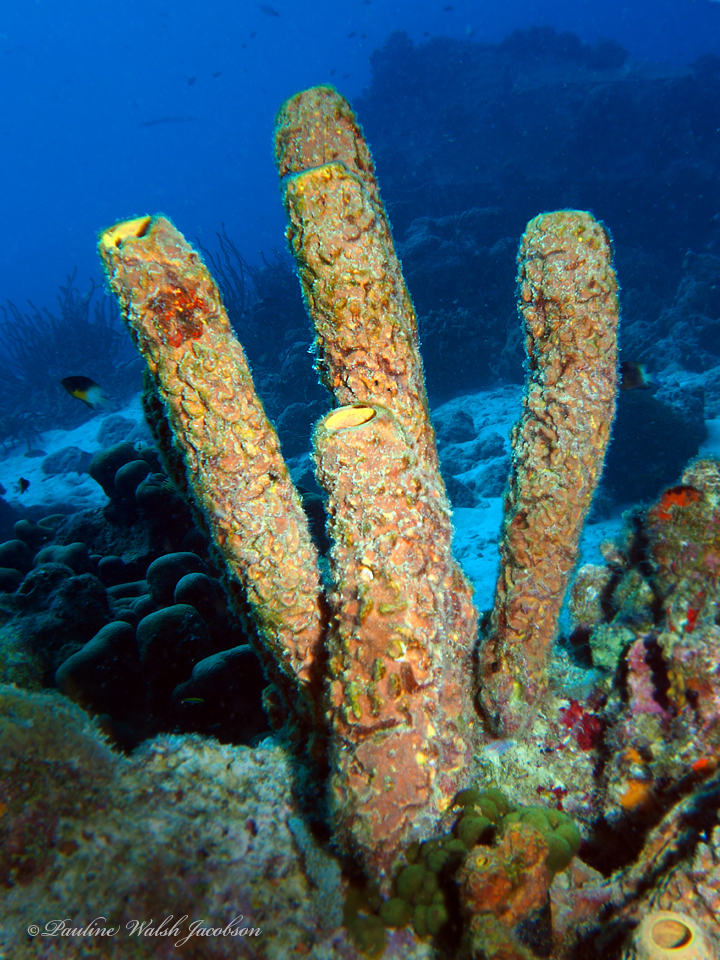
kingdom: Animalia
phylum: Porifera
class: Demospongiae
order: Verongiida
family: Aplysinidae
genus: Aplysina
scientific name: Aplysina archeri
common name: Stove-pipe sponge
